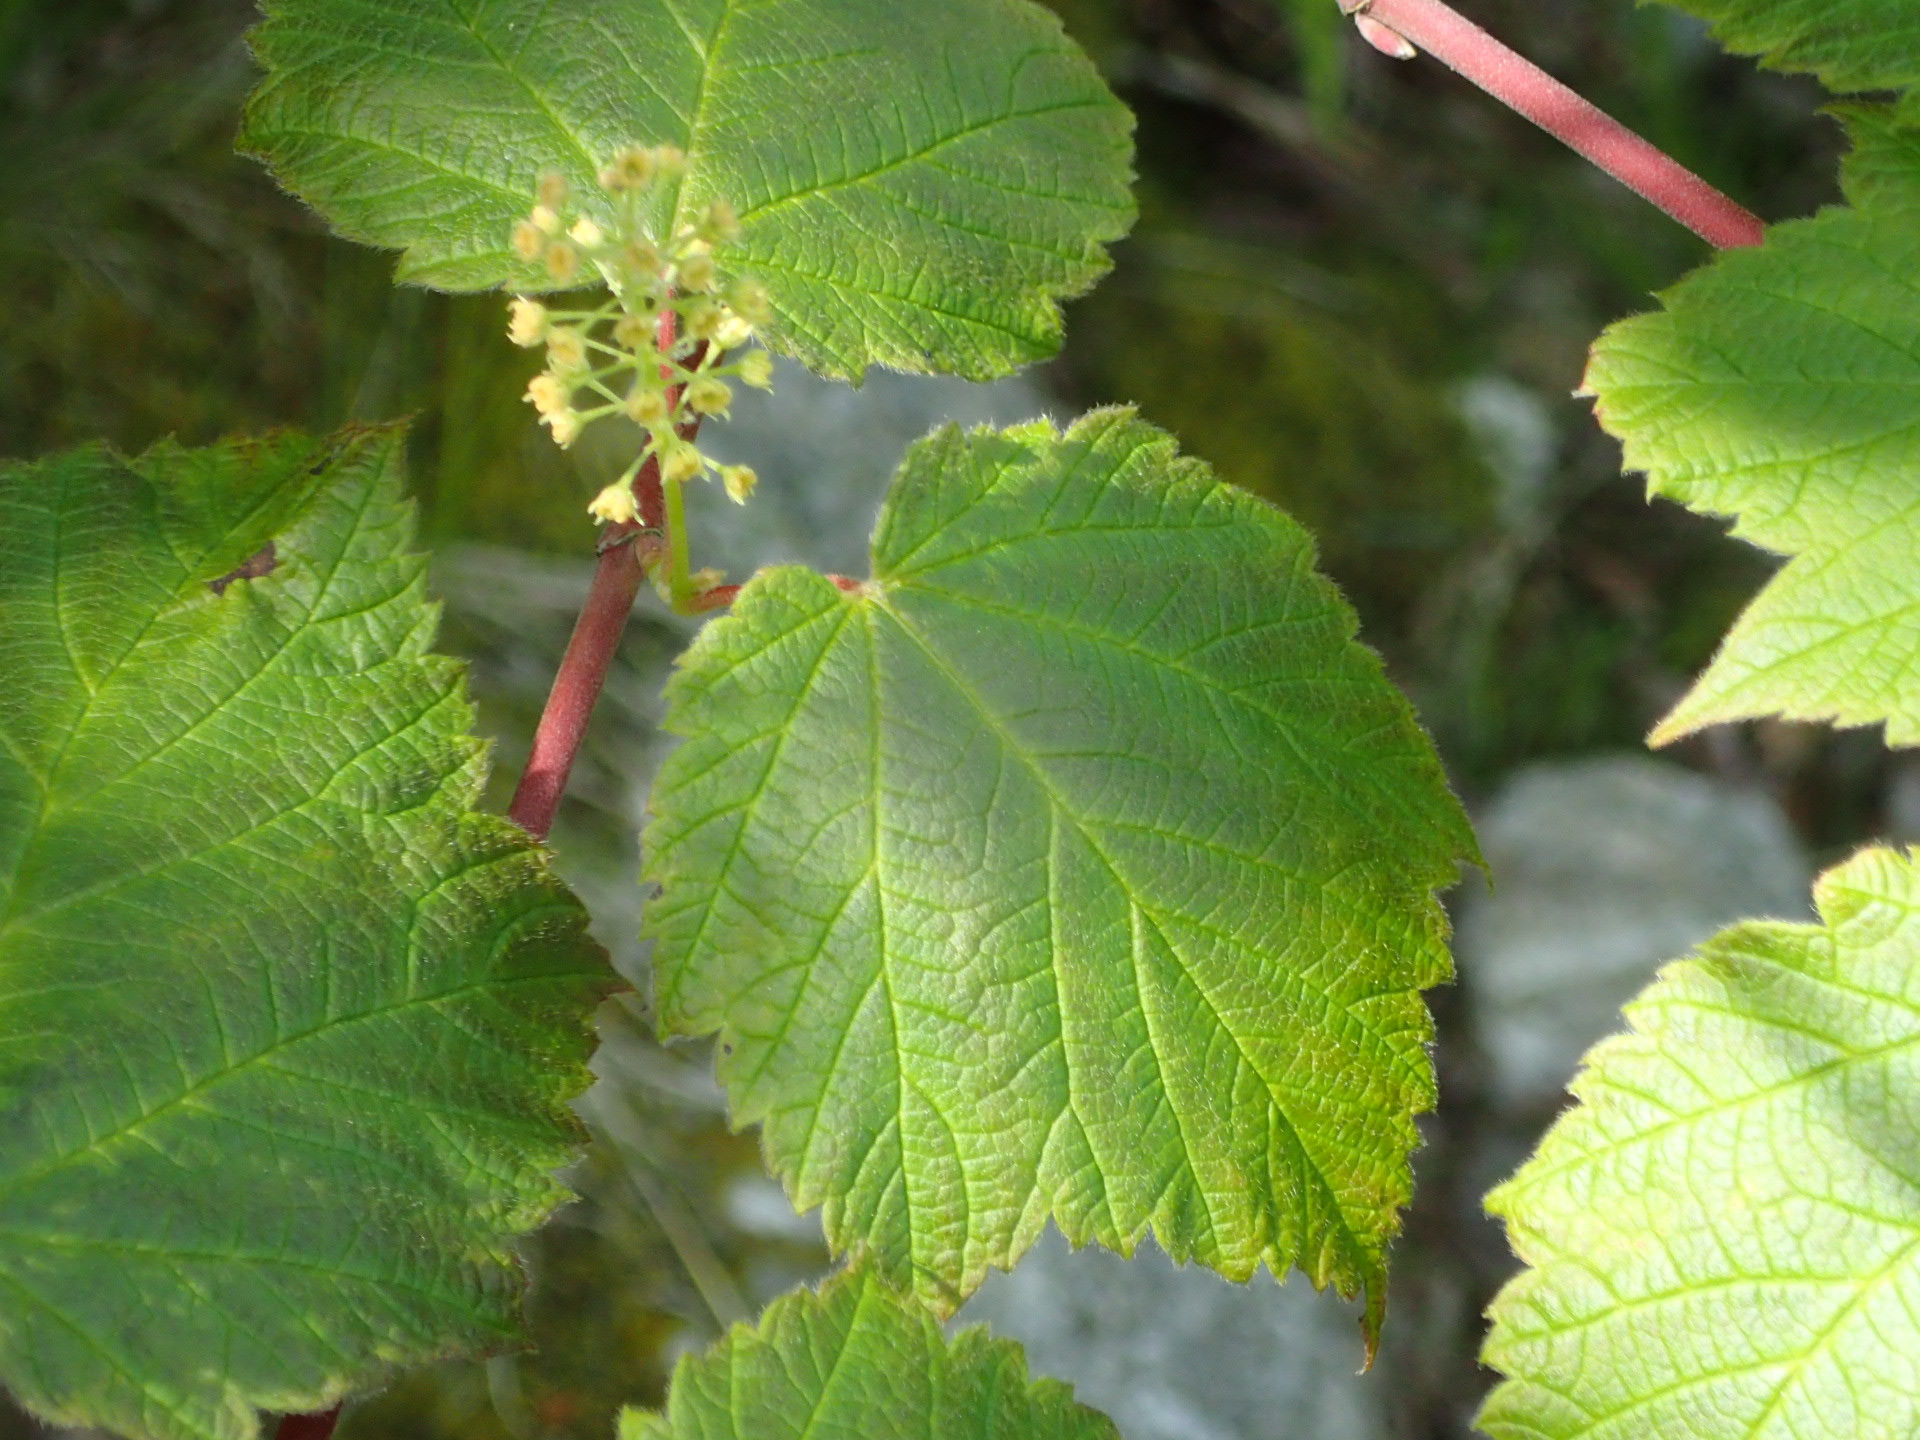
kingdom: Plantae
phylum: Tracheophyta
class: Magnoliopsida
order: Sapindales
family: Sapindaceae
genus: Acer
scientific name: Acer spicatum
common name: Mountain maple
